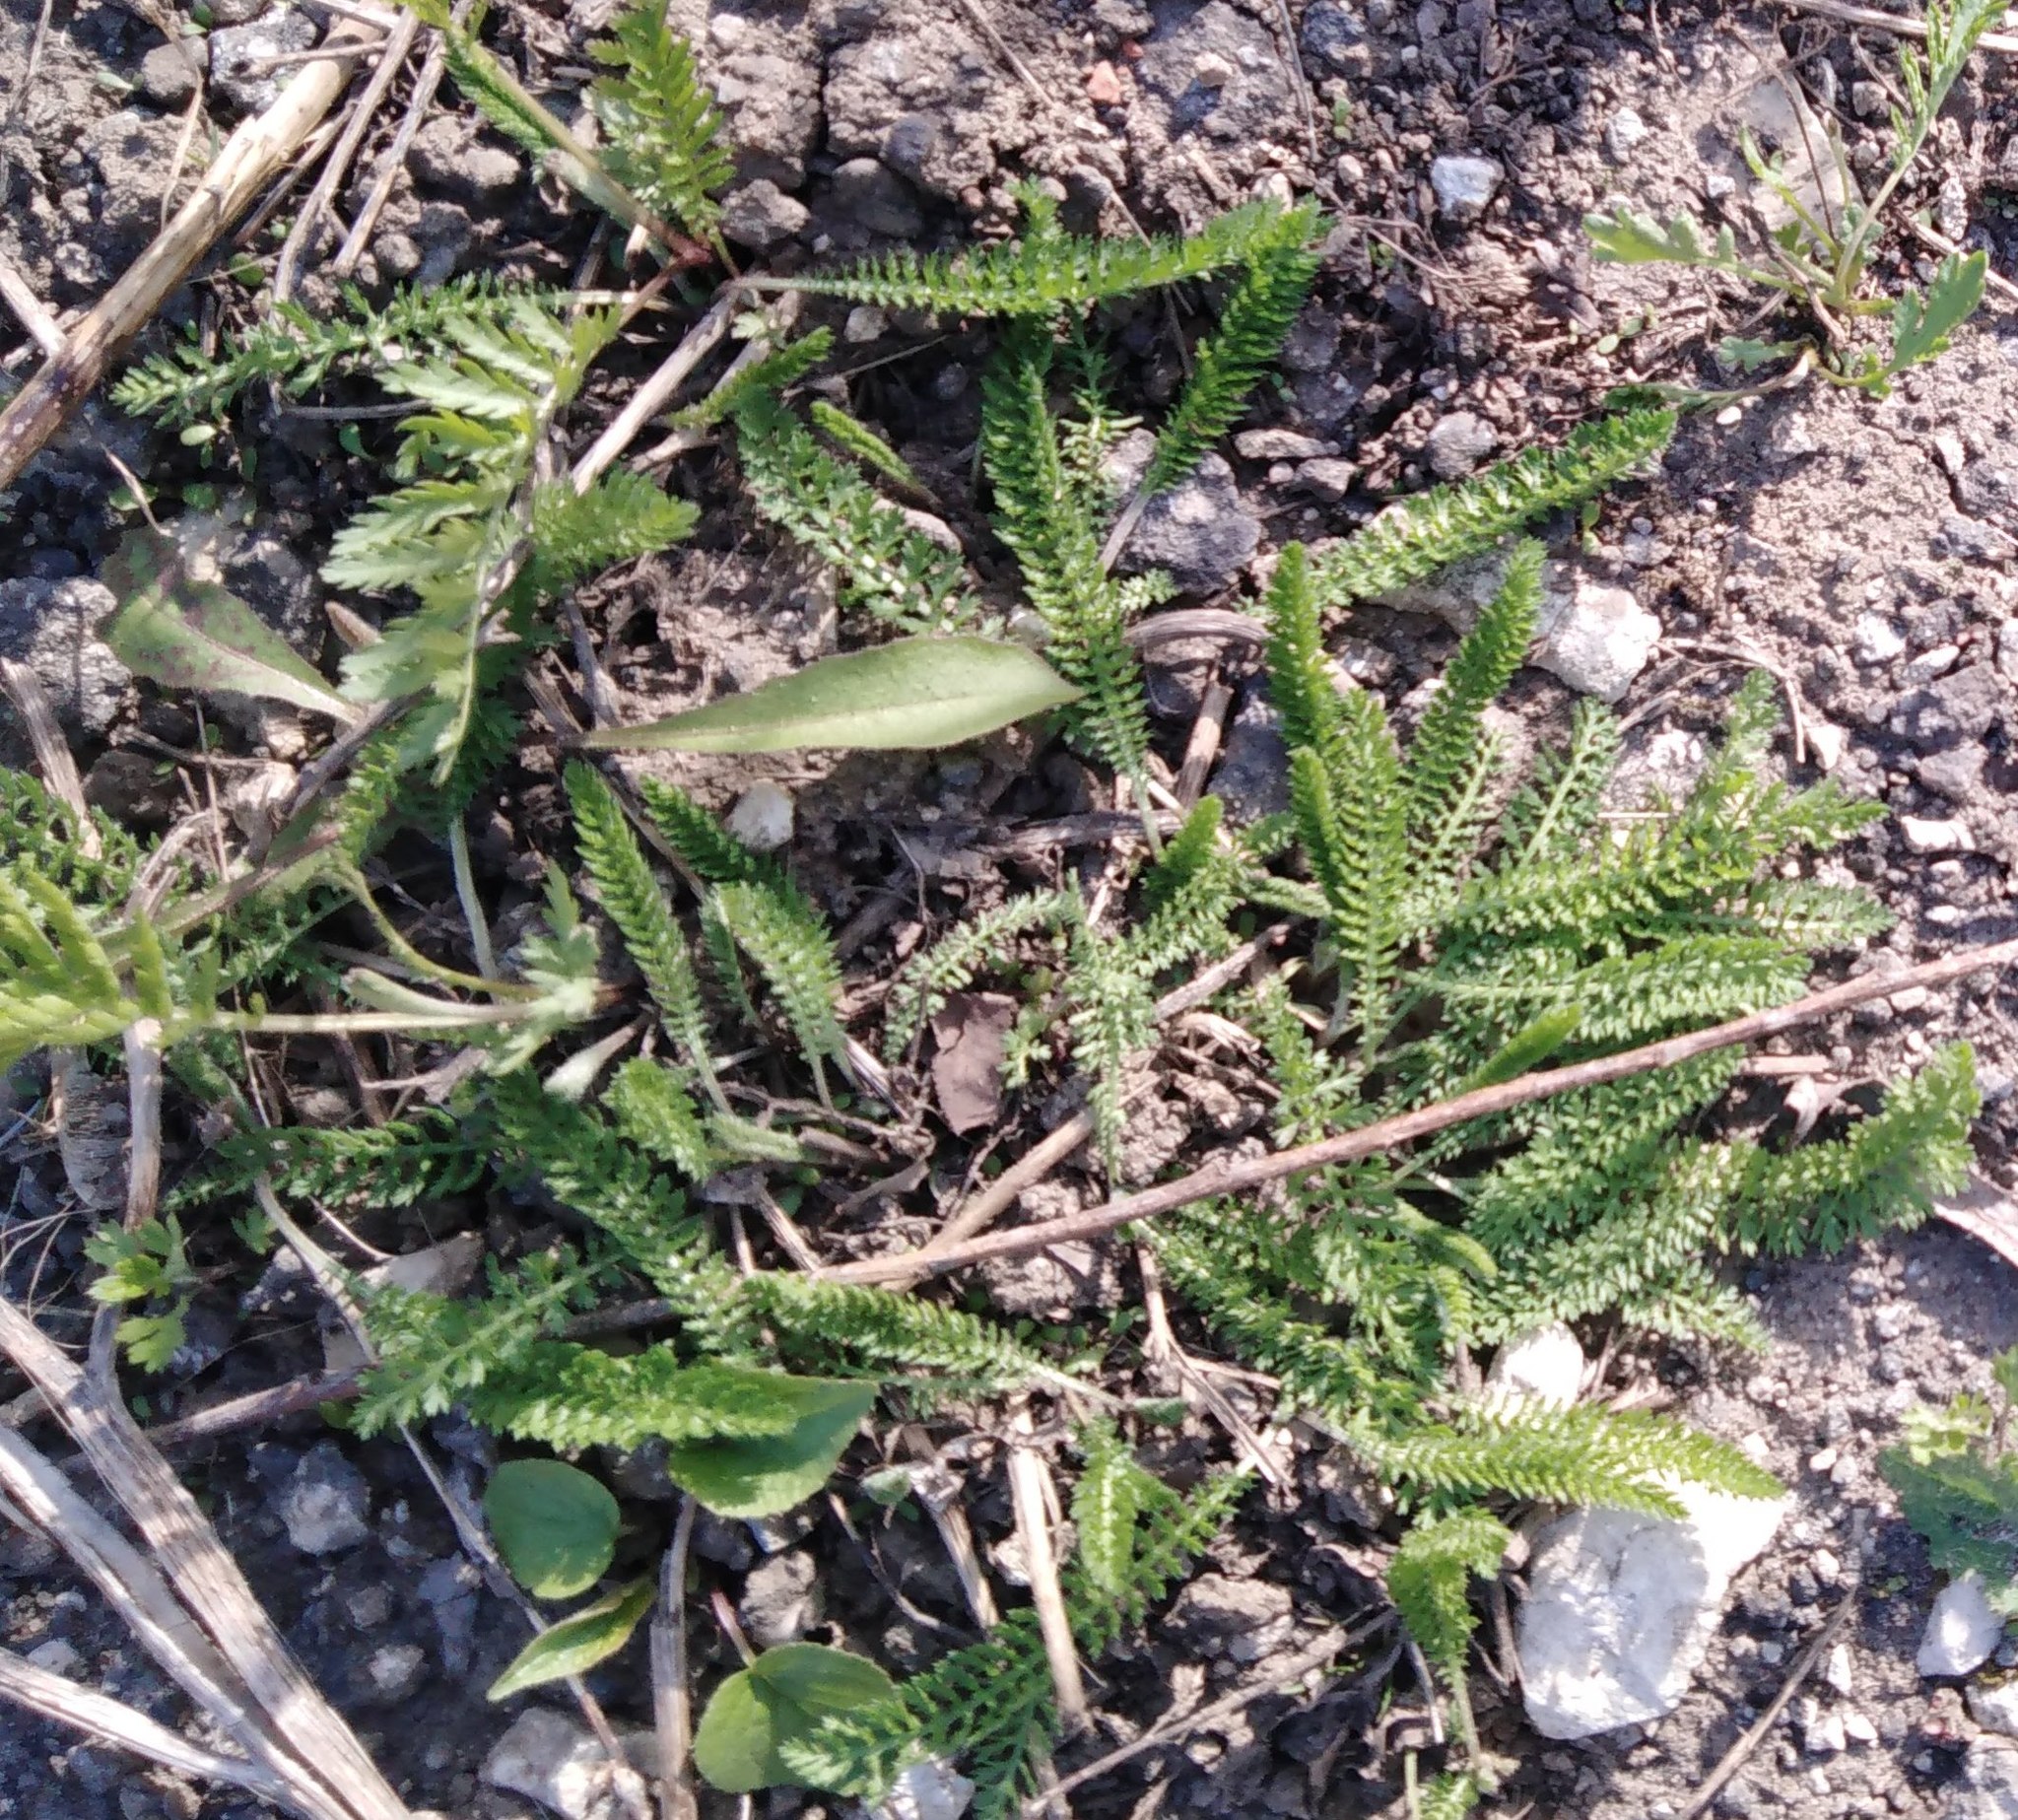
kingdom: Plantae
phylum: Tracheophyta
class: Magnoliopsida
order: Asterales
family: Asteraceae
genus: Achillea
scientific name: Achillea millefolium
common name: Yarrow
